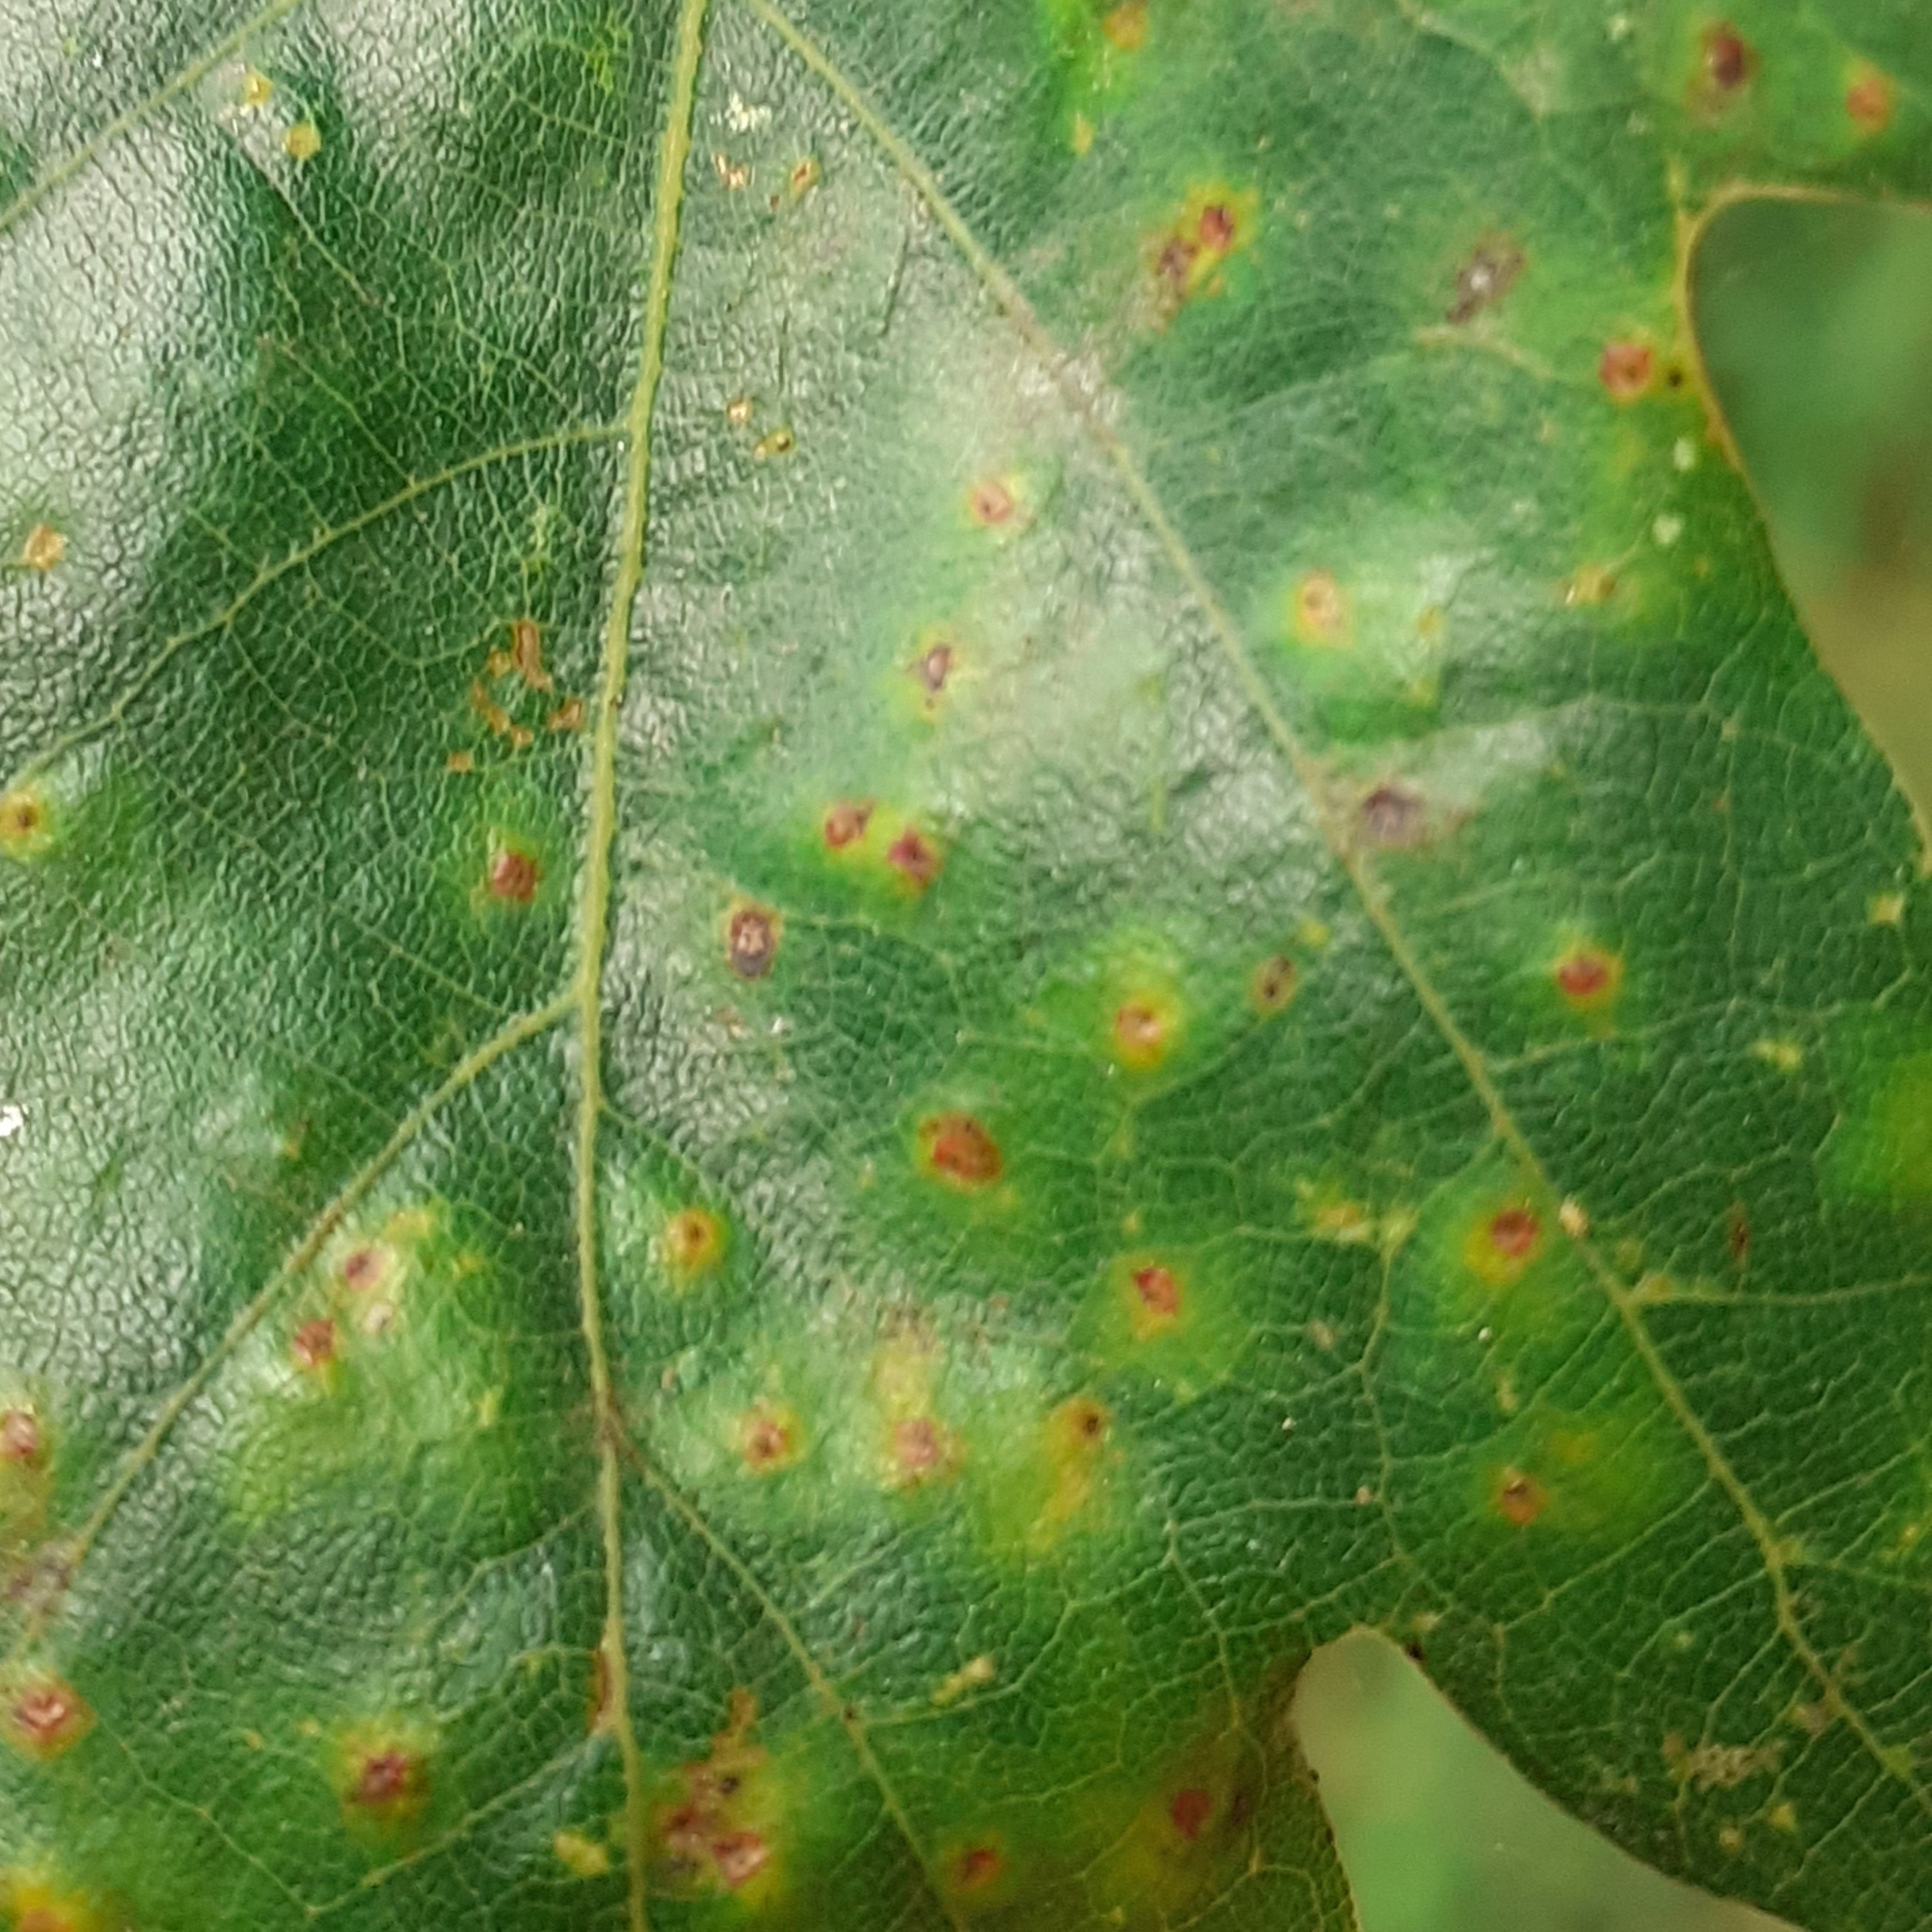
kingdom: Animalia
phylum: Arthropoda
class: Insecta
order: Hymenoptera
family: Cynipidae
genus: Neuroterus
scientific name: Neuroterus numismalis
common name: Silk-button spangle gall
